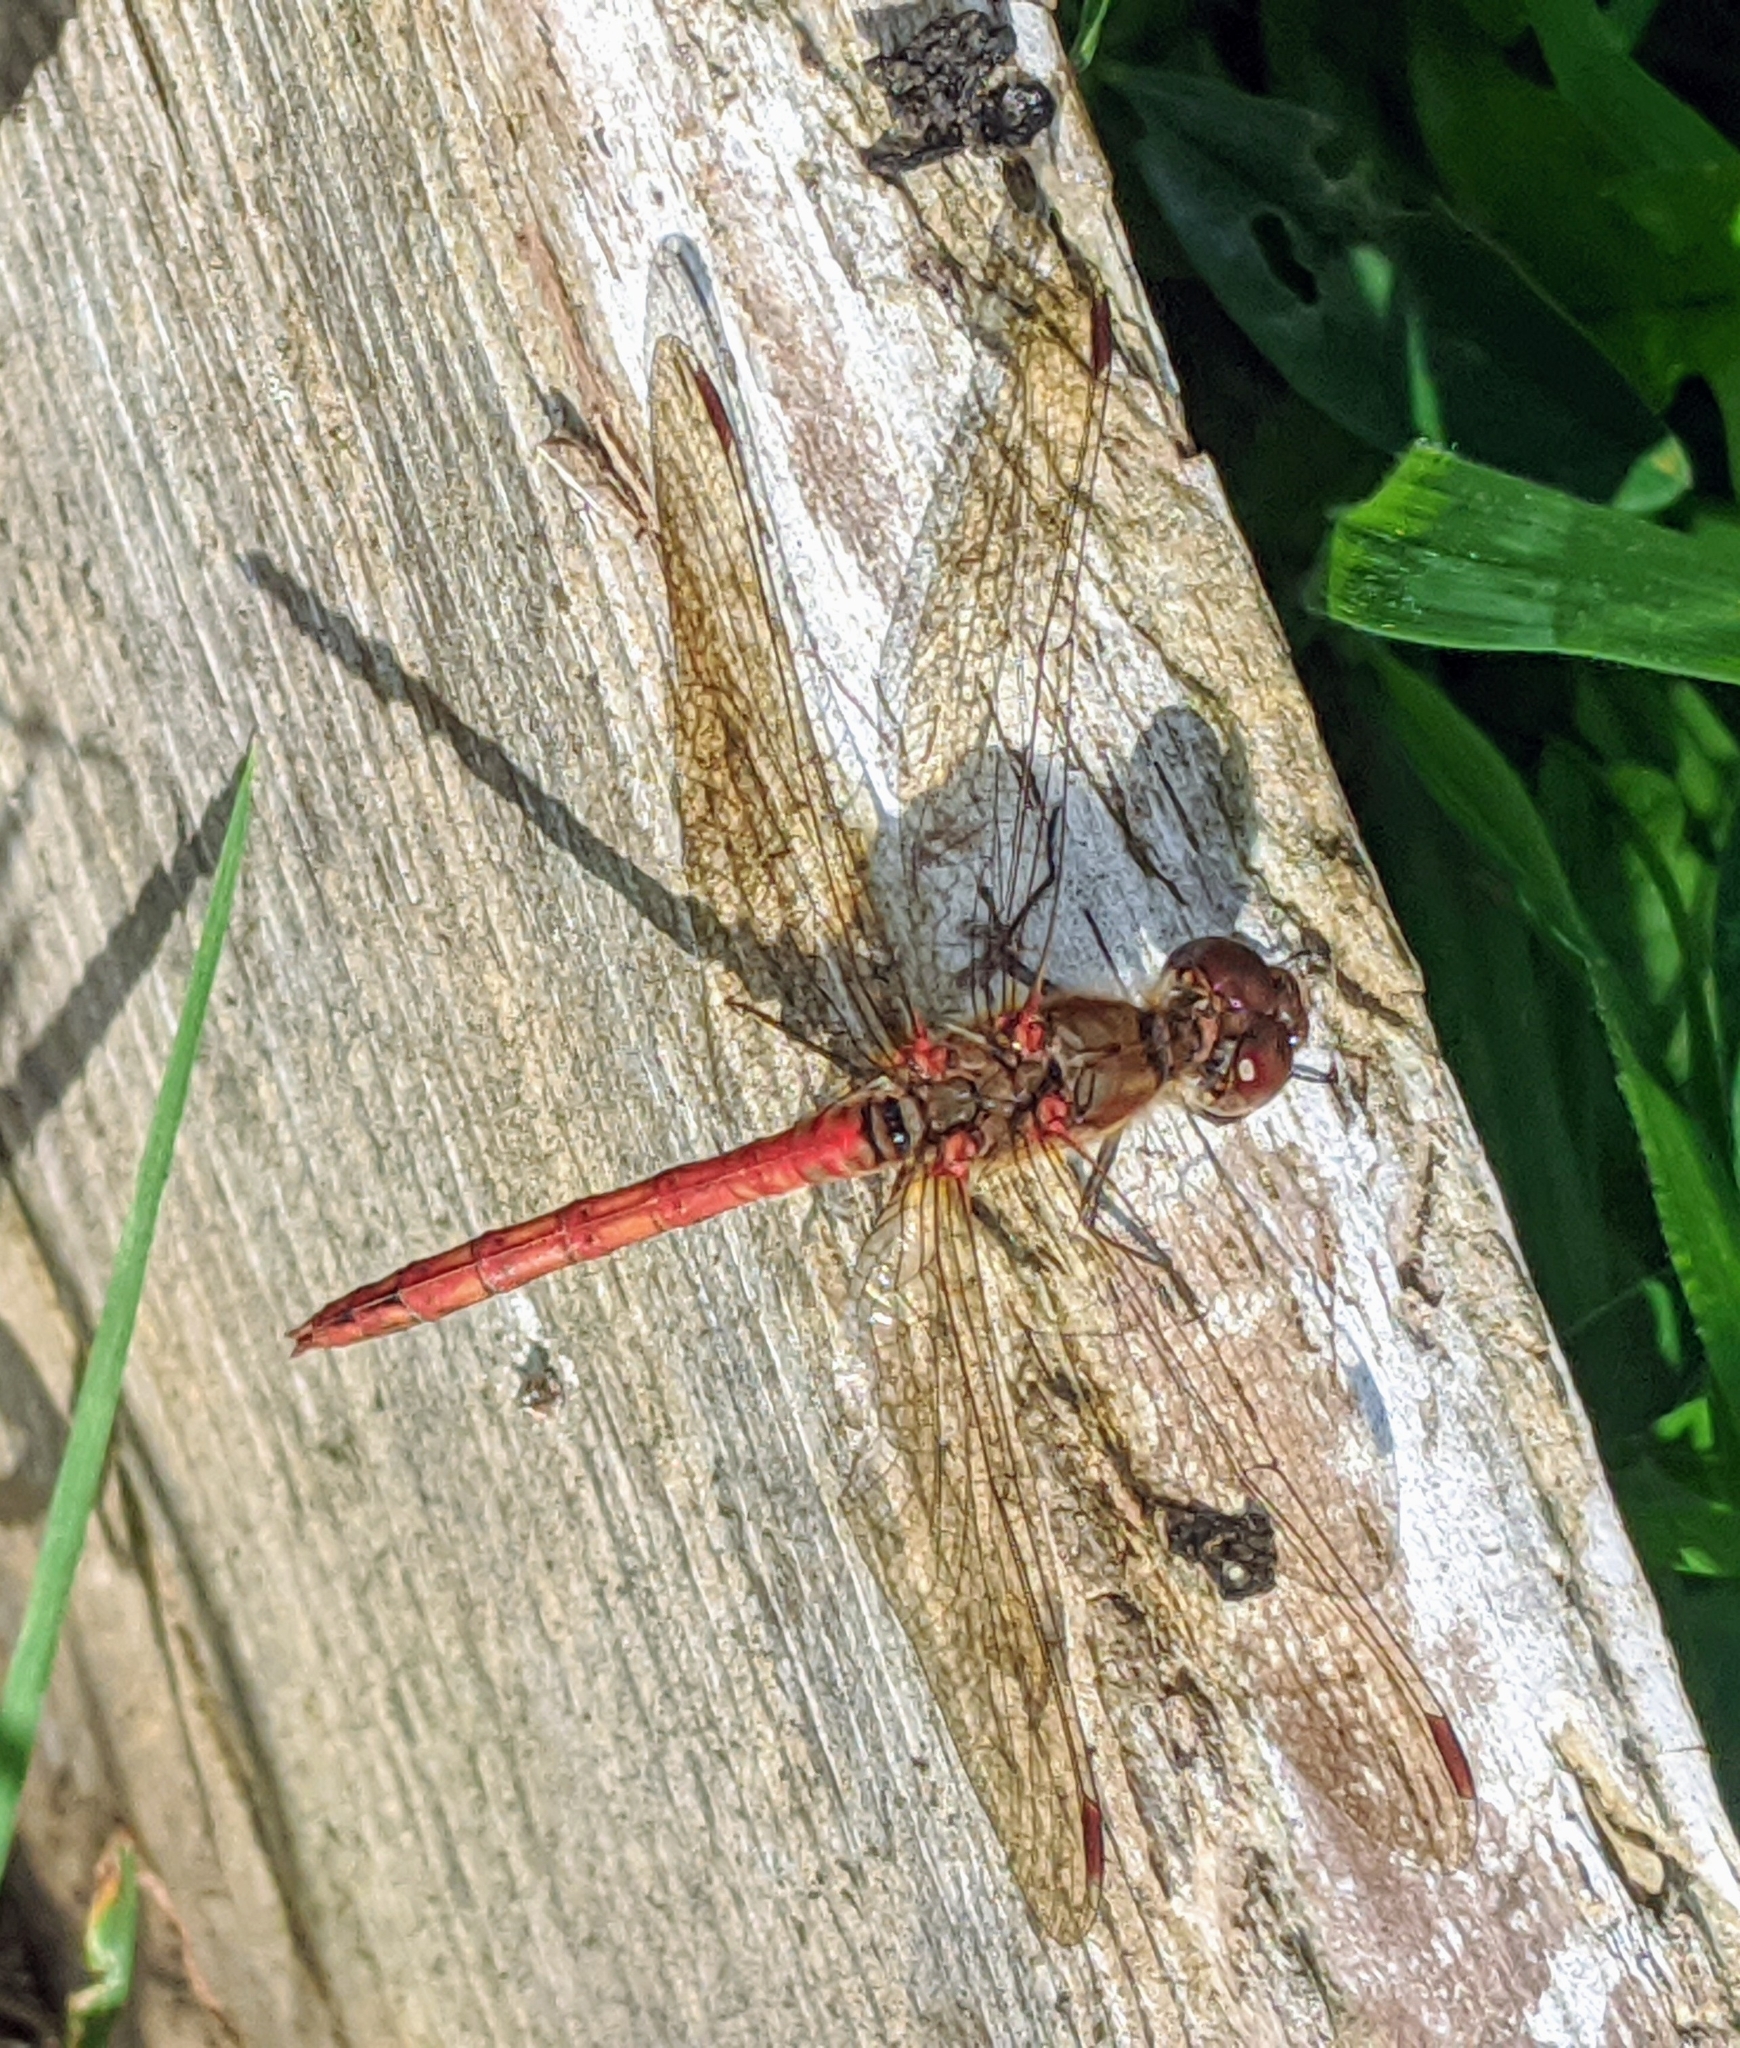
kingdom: Animalia
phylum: Arthropoda
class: Insecta
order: Odonata
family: Libellulidae
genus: Sympetrum
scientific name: Sympetrum striolatum
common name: Common darter
